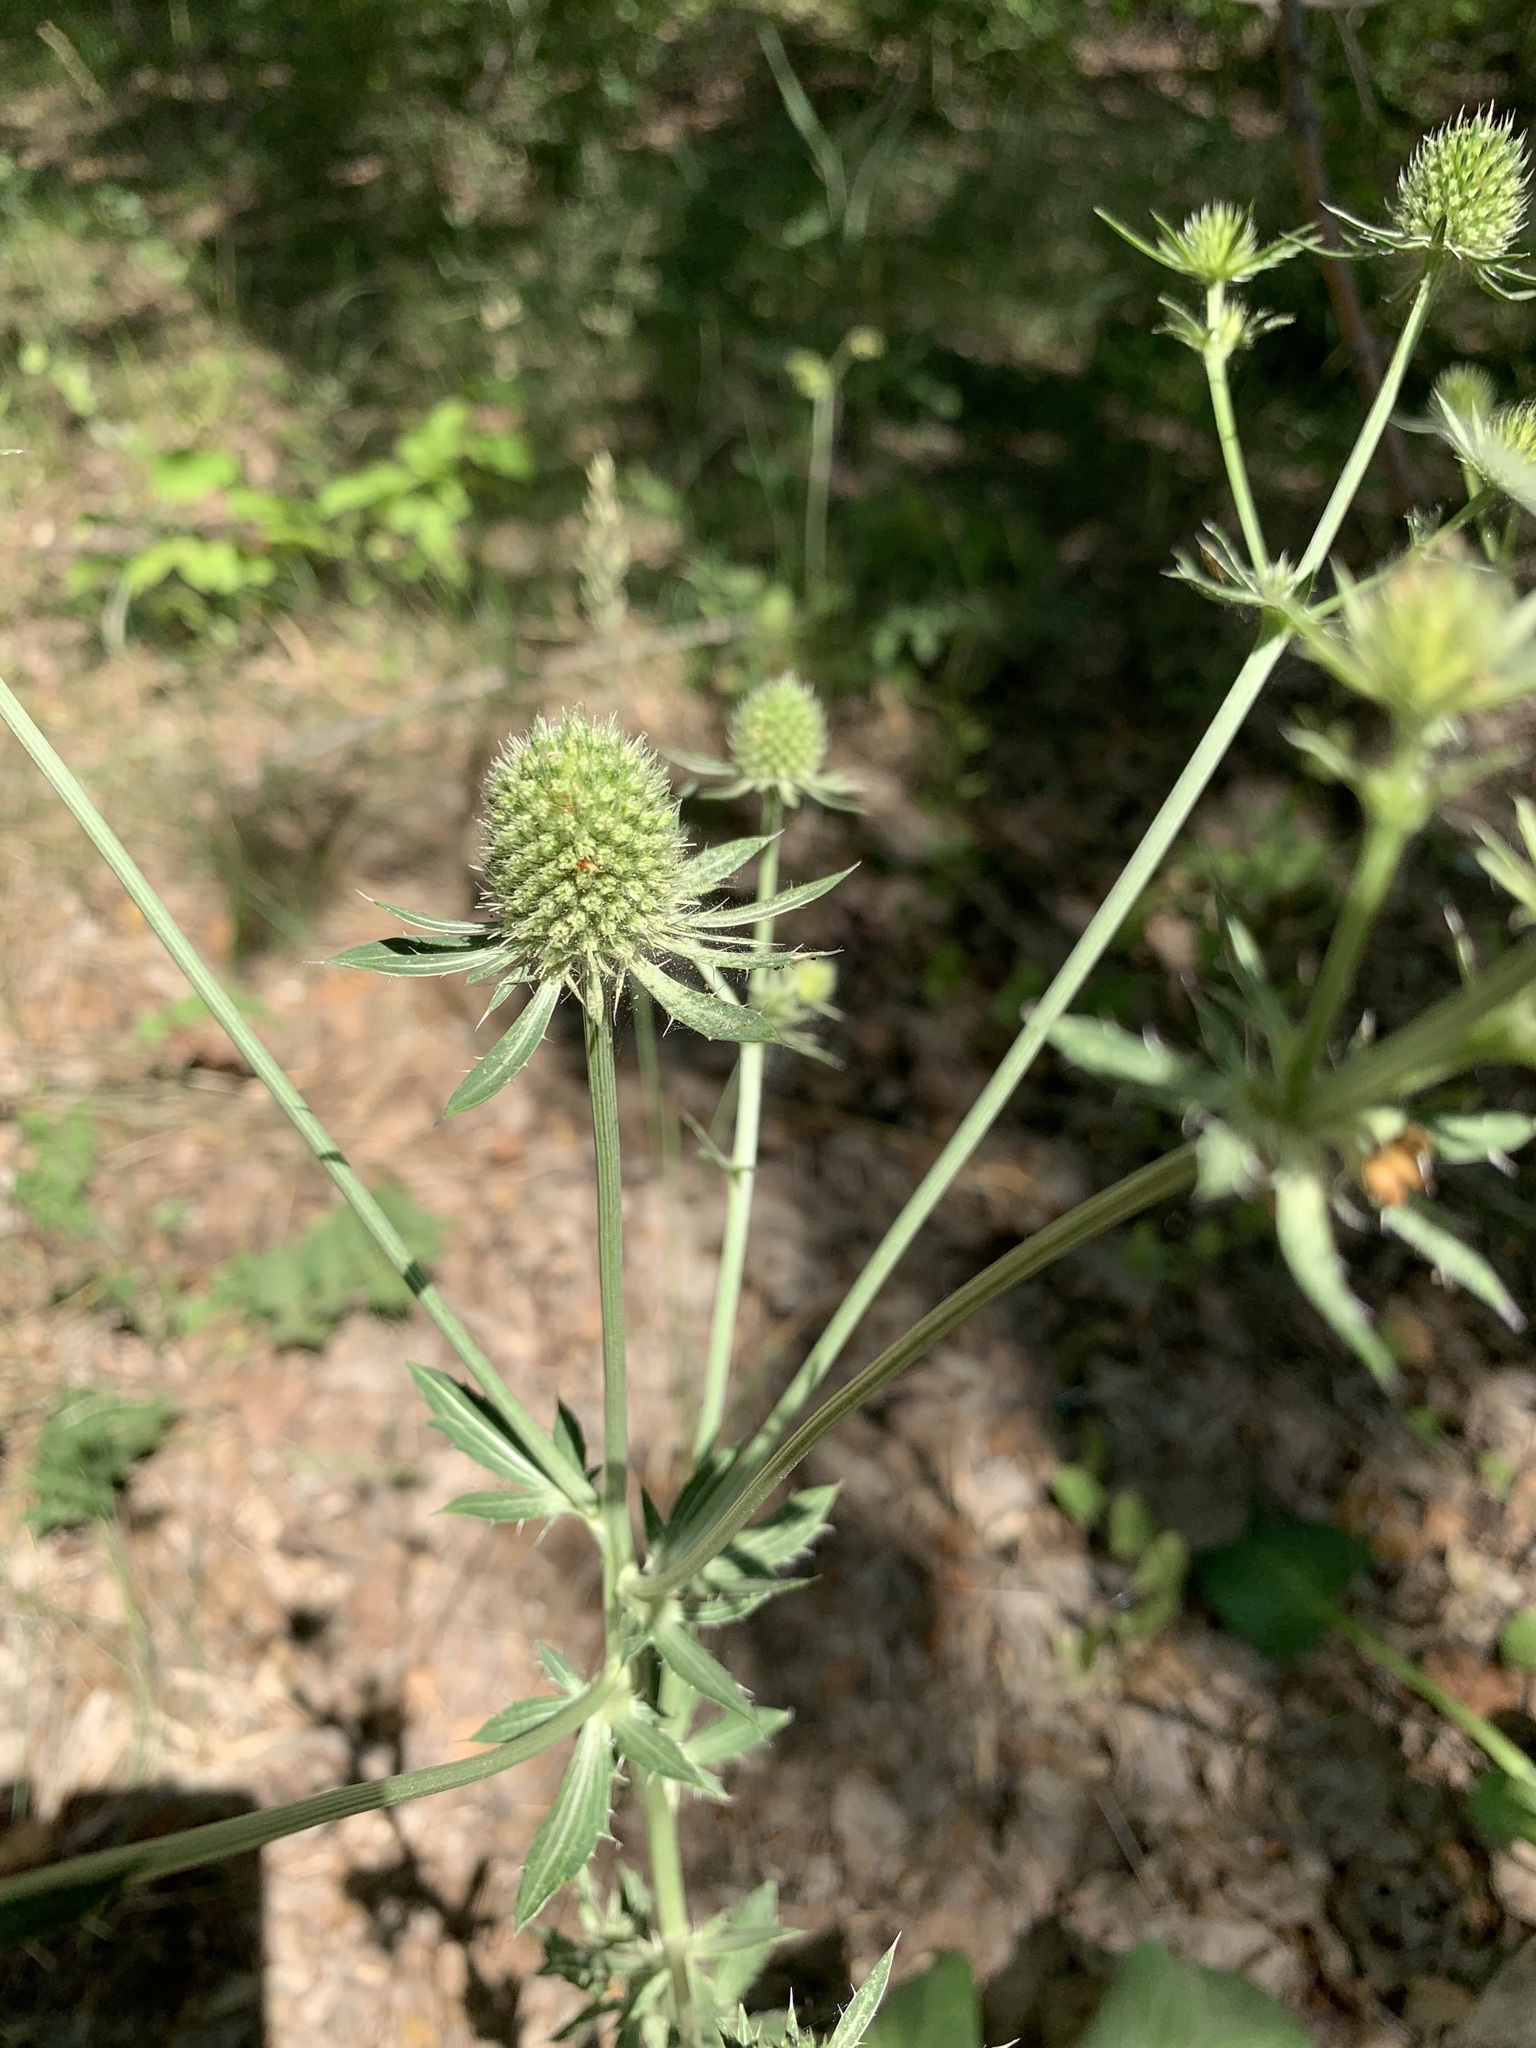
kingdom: Plantae
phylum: Tracheophyta
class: Magnoliopsida
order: Apiales
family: Apiaceae
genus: Eryngium
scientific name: Eryngium planum
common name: Blue eryngo
